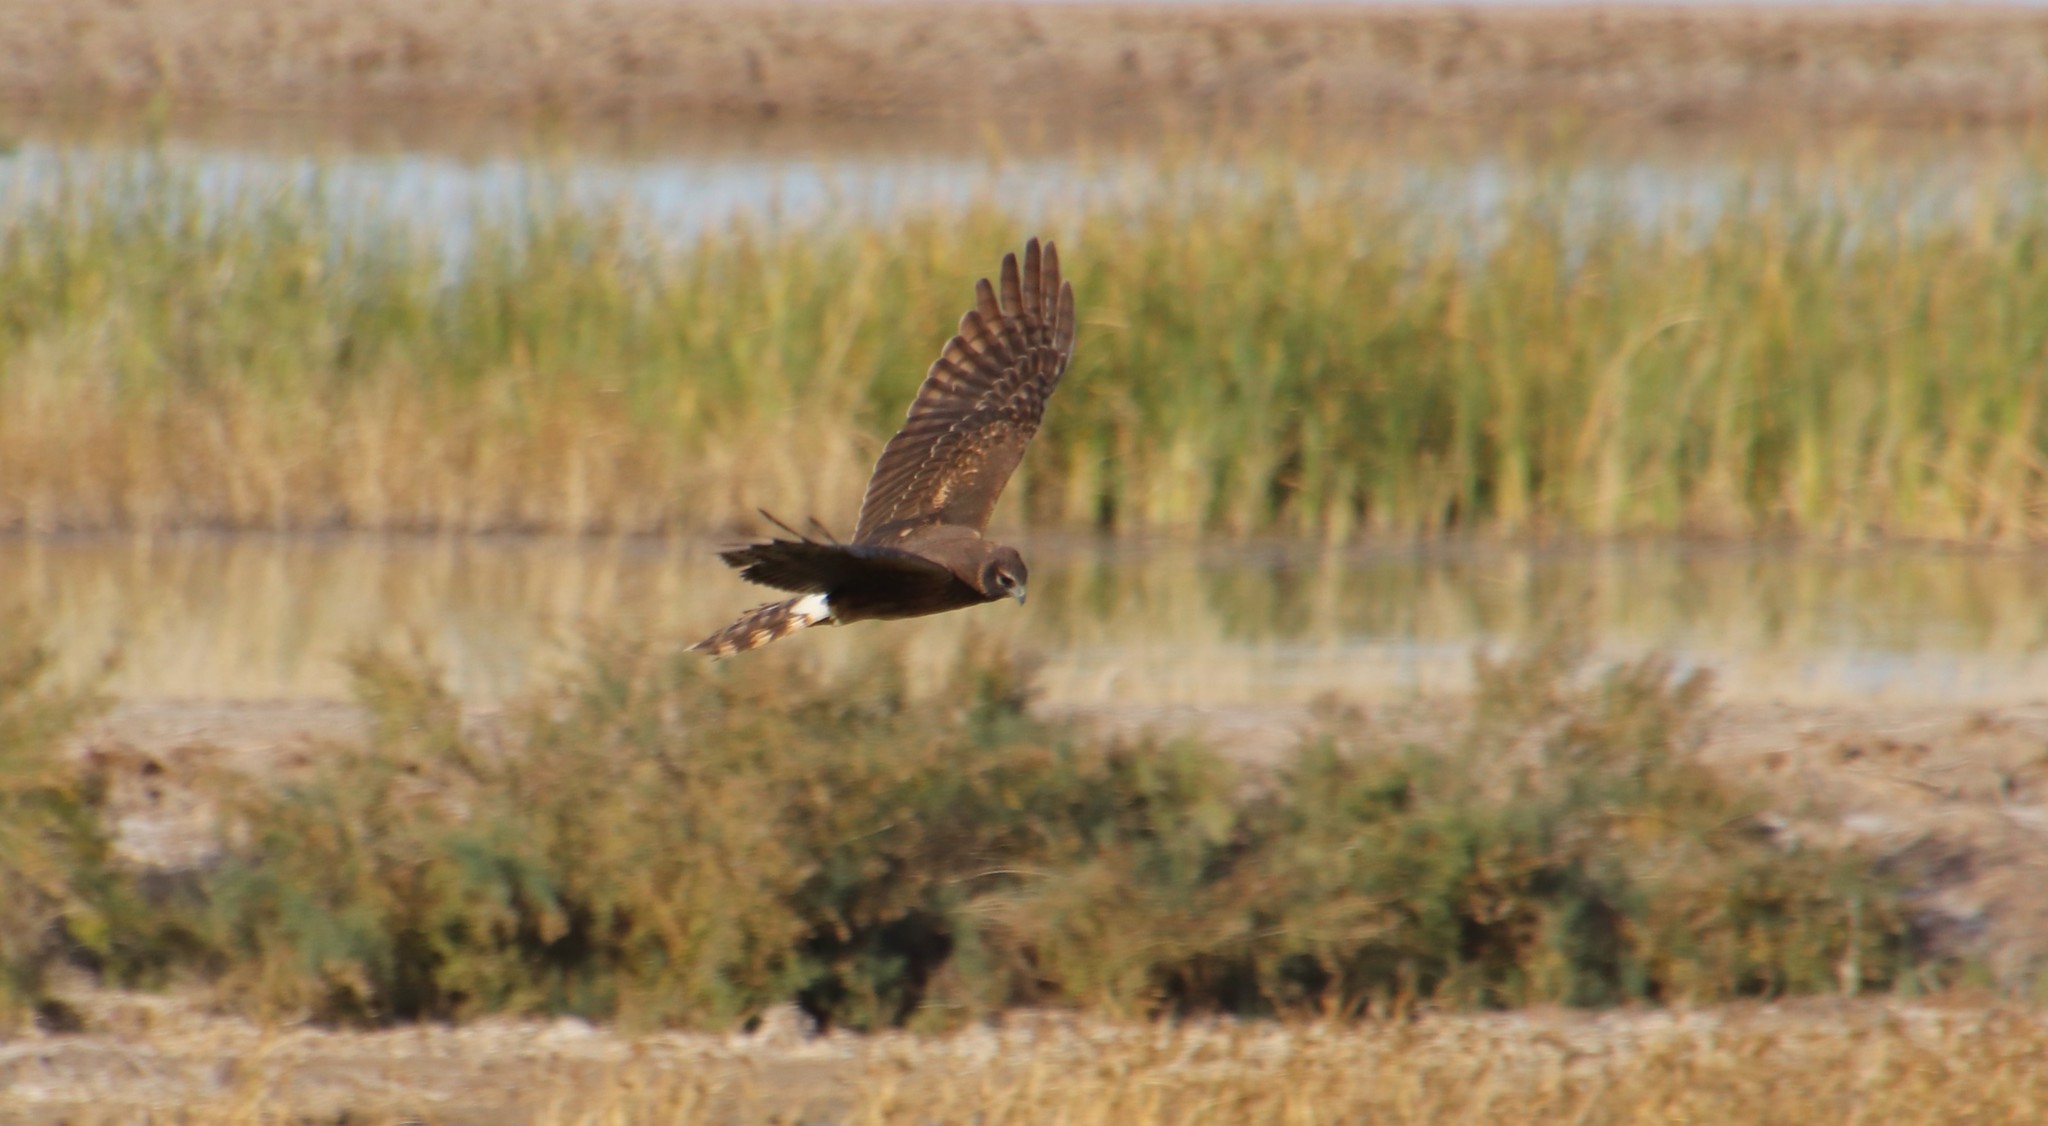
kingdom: Animalia
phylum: Chordata
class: Aves
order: Accipitriformes
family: Accipitridae
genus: Circus
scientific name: Circus cyaneus
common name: Hen harrier
